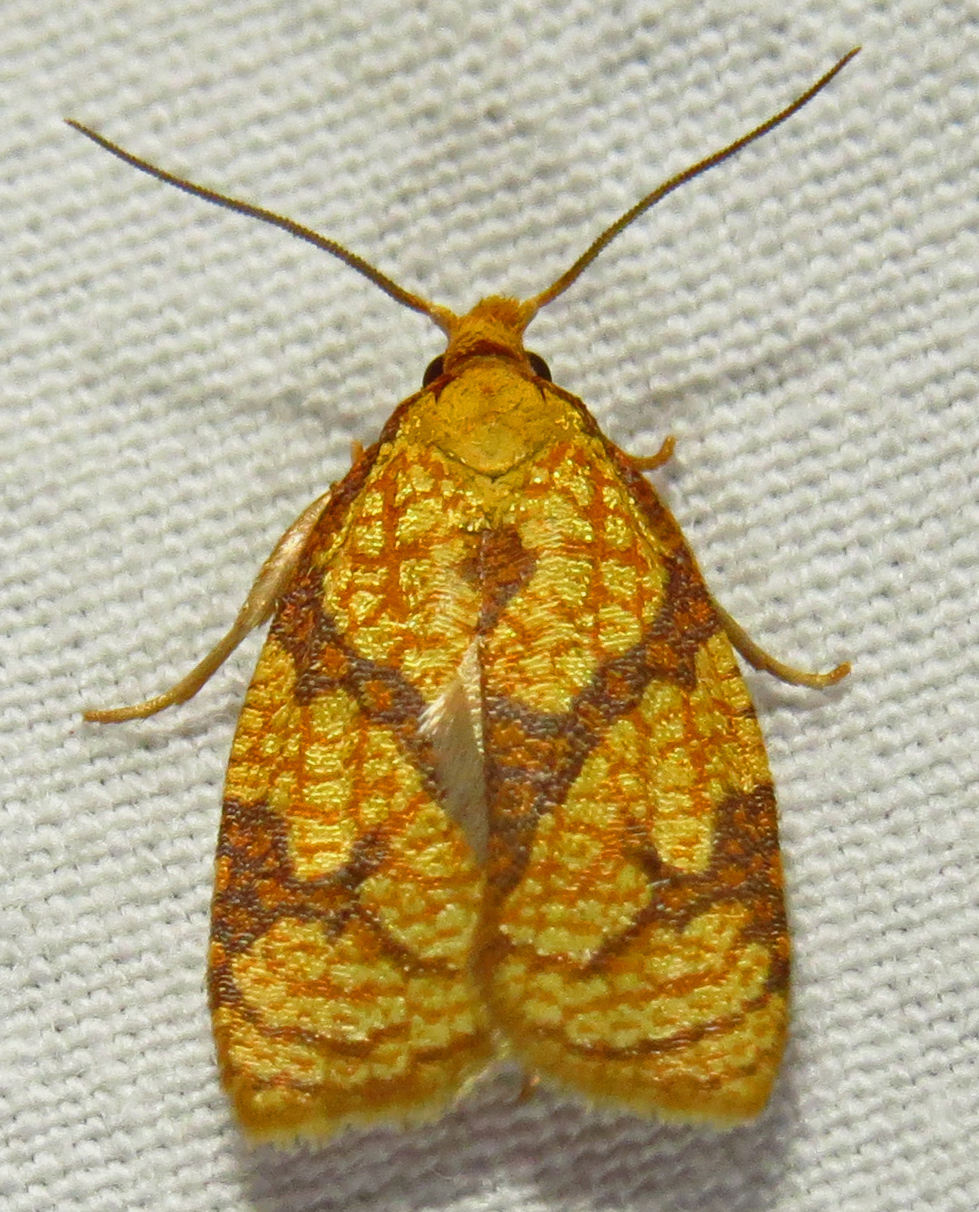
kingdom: Animalia
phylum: Arthropoda
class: Insecta
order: Lepidoptera
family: Tortricidae
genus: Cenopis
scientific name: Cenopis reticulatana
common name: Reticulated fruitworm moth
